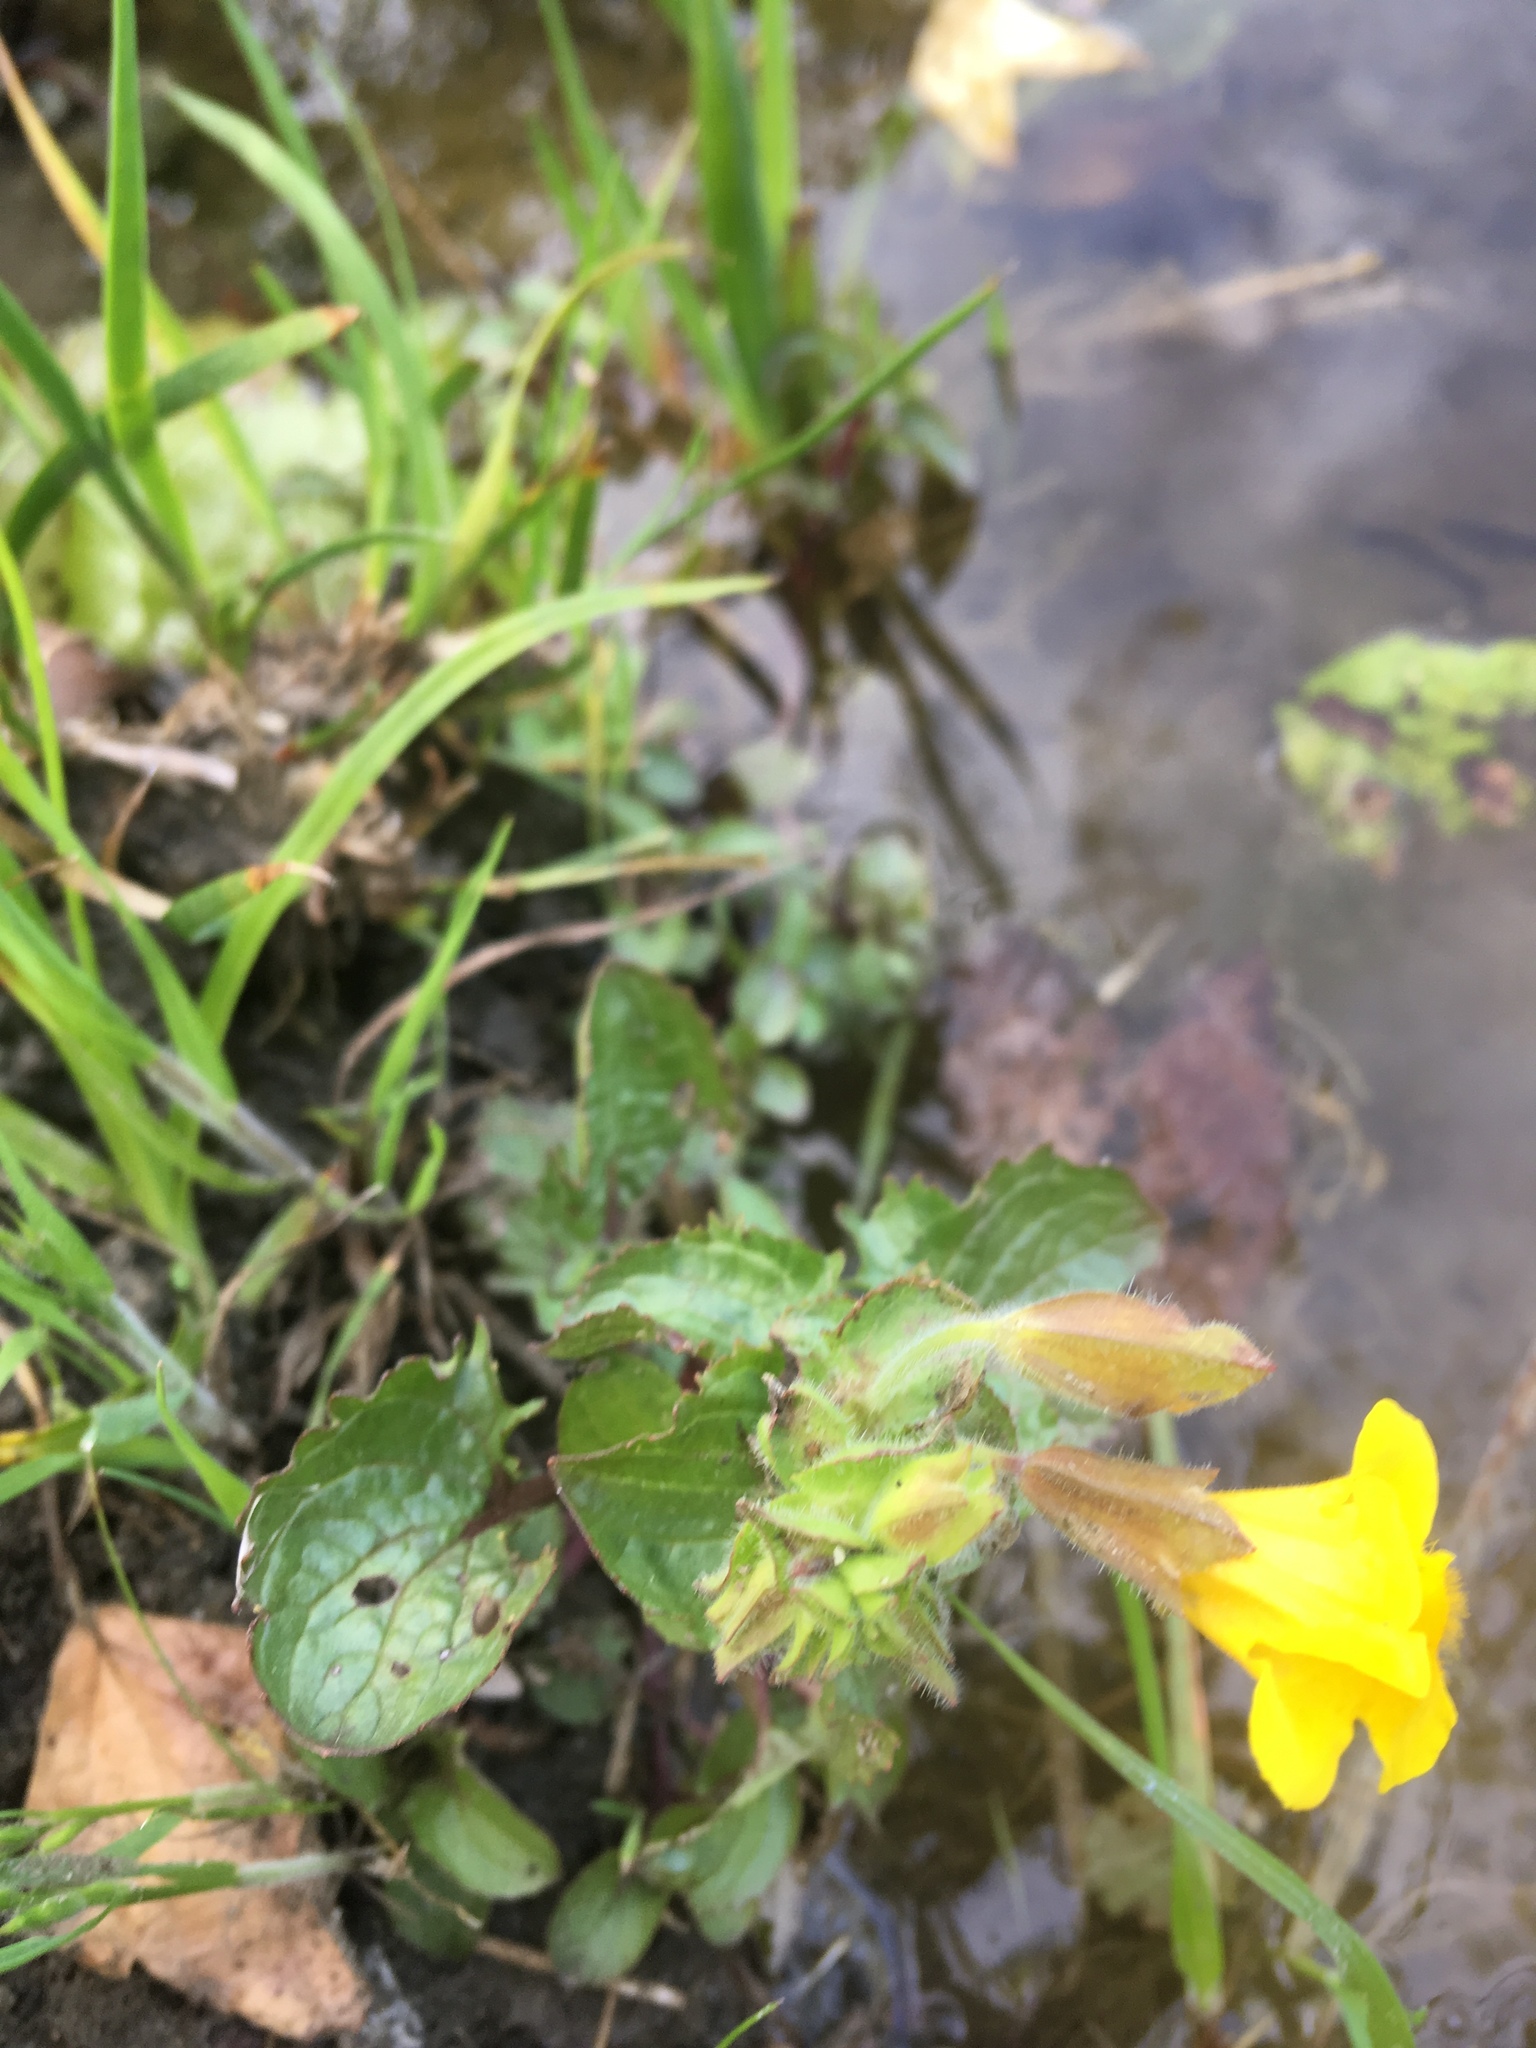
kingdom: Plantae
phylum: Tracheophyta
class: Magnoliopsida
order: Lamiales
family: Phrymaceae
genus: Erythranthe
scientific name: Erythranthe guttata
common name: Monkeyflower
